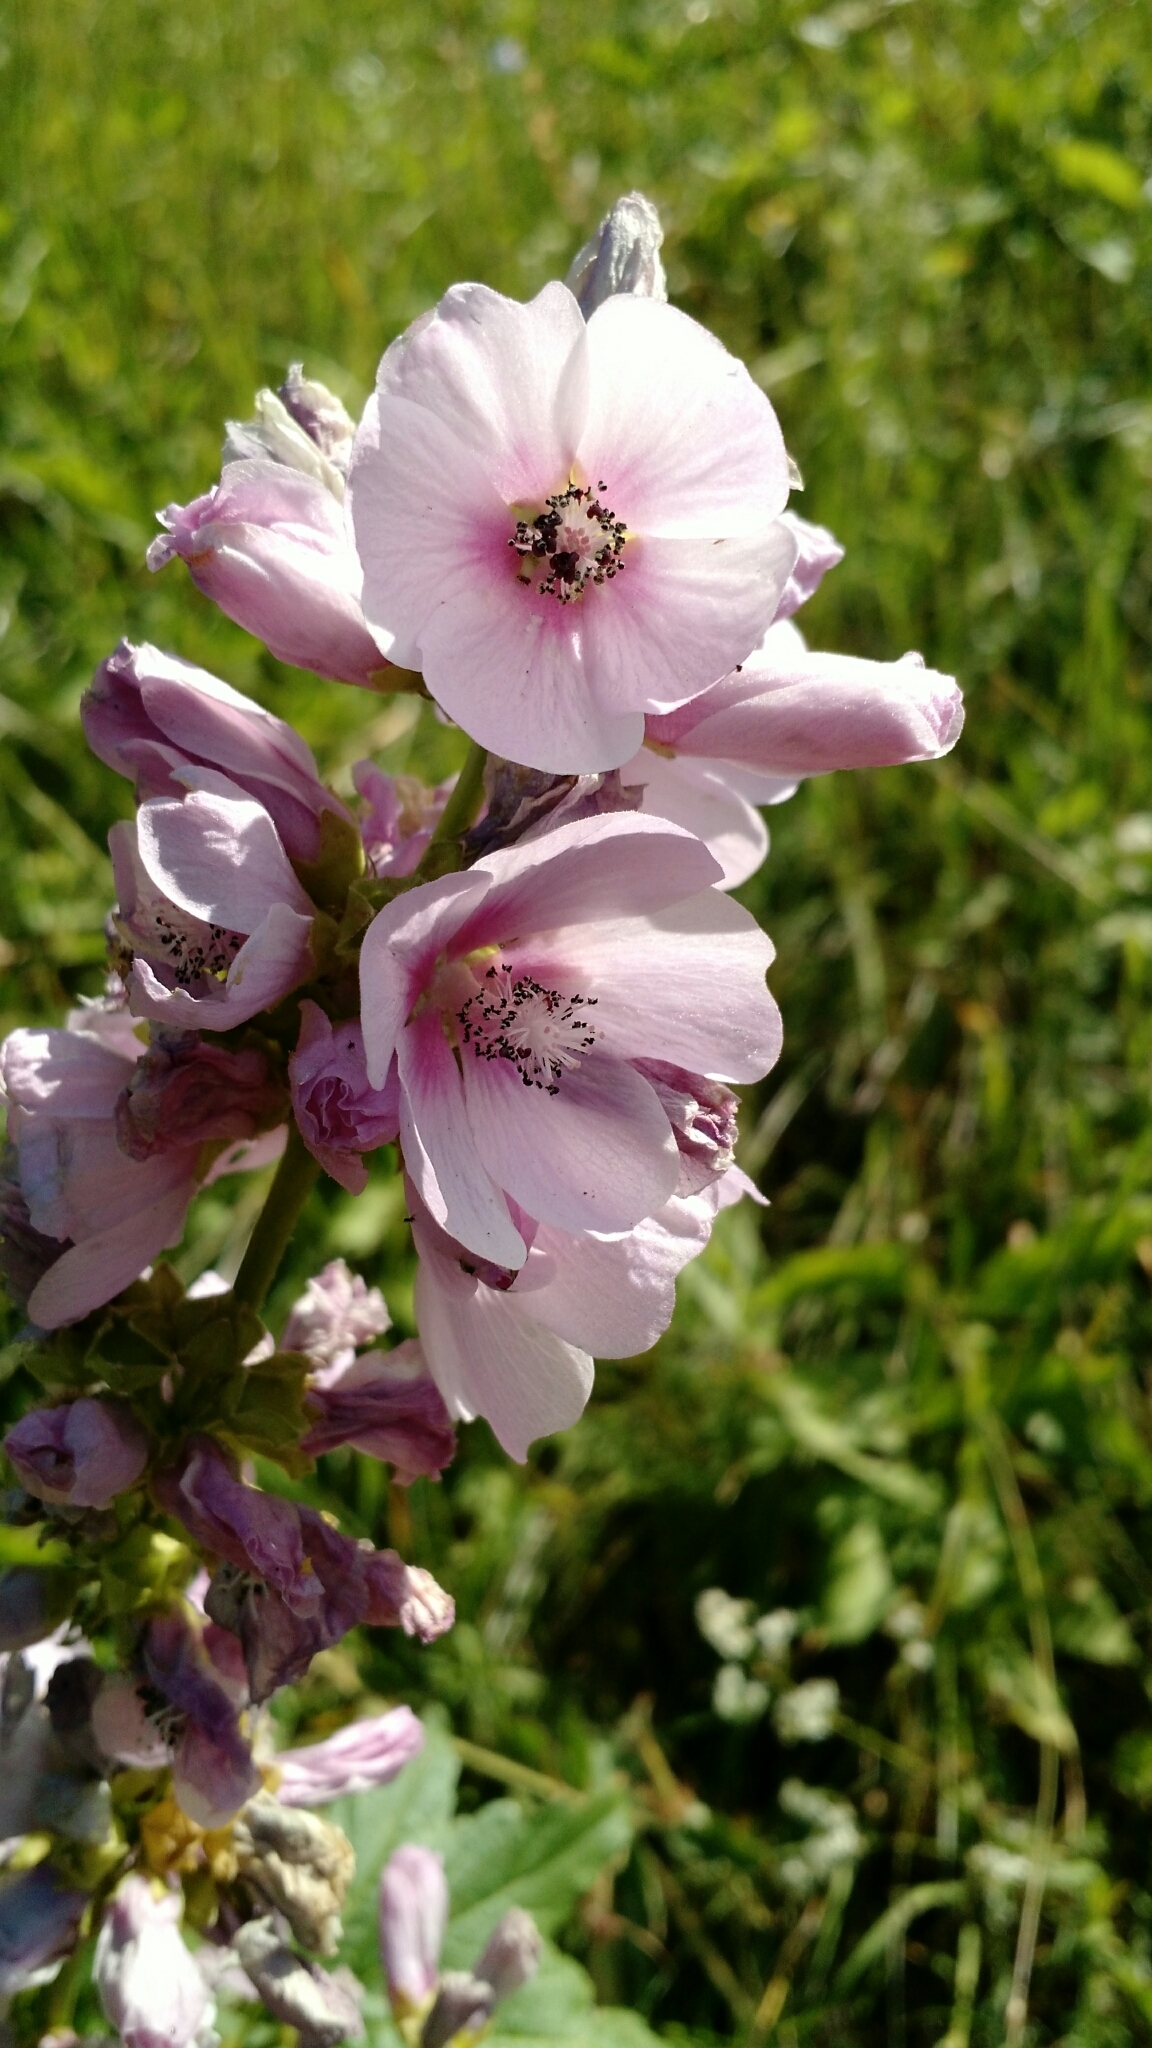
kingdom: Plantae
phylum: Tracheophyta
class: Magnoliopsida
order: Malvales
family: Malvaceae
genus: Iliamna
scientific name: Iliamna rivularis
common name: Wild hollyhock
